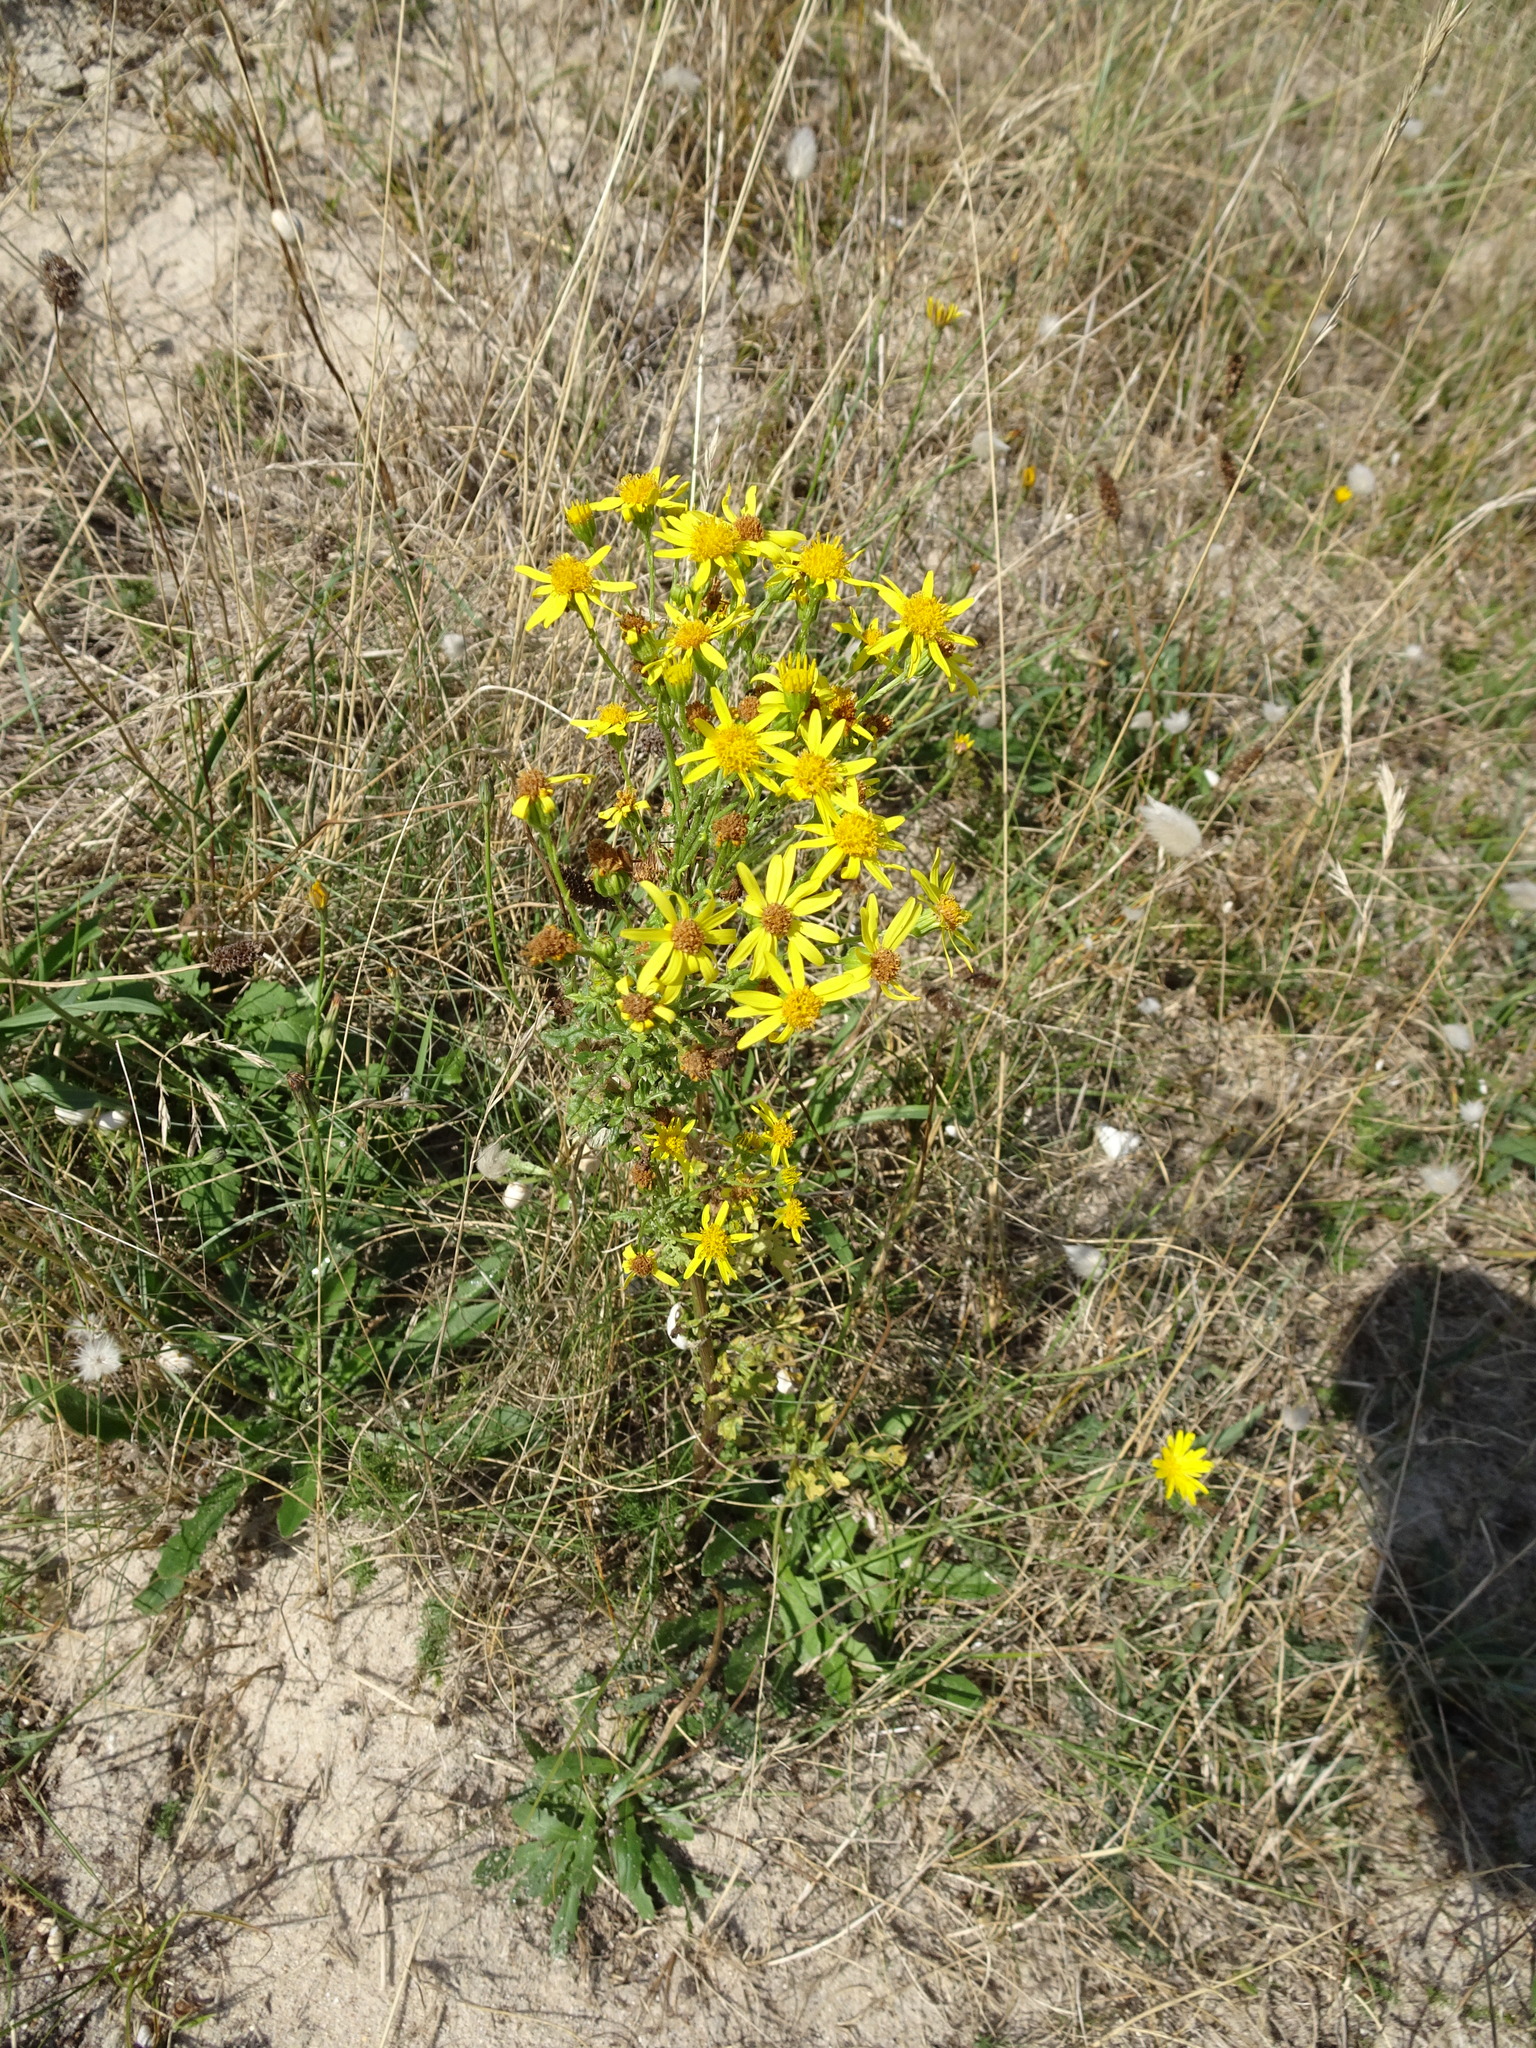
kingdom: Plantae
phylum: Tracheophyta
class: Magnoliopsida
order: Asterales
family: Asteraceae
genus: Jacobaea
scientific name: Jacobaea vulgaris
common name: Stinking willie
